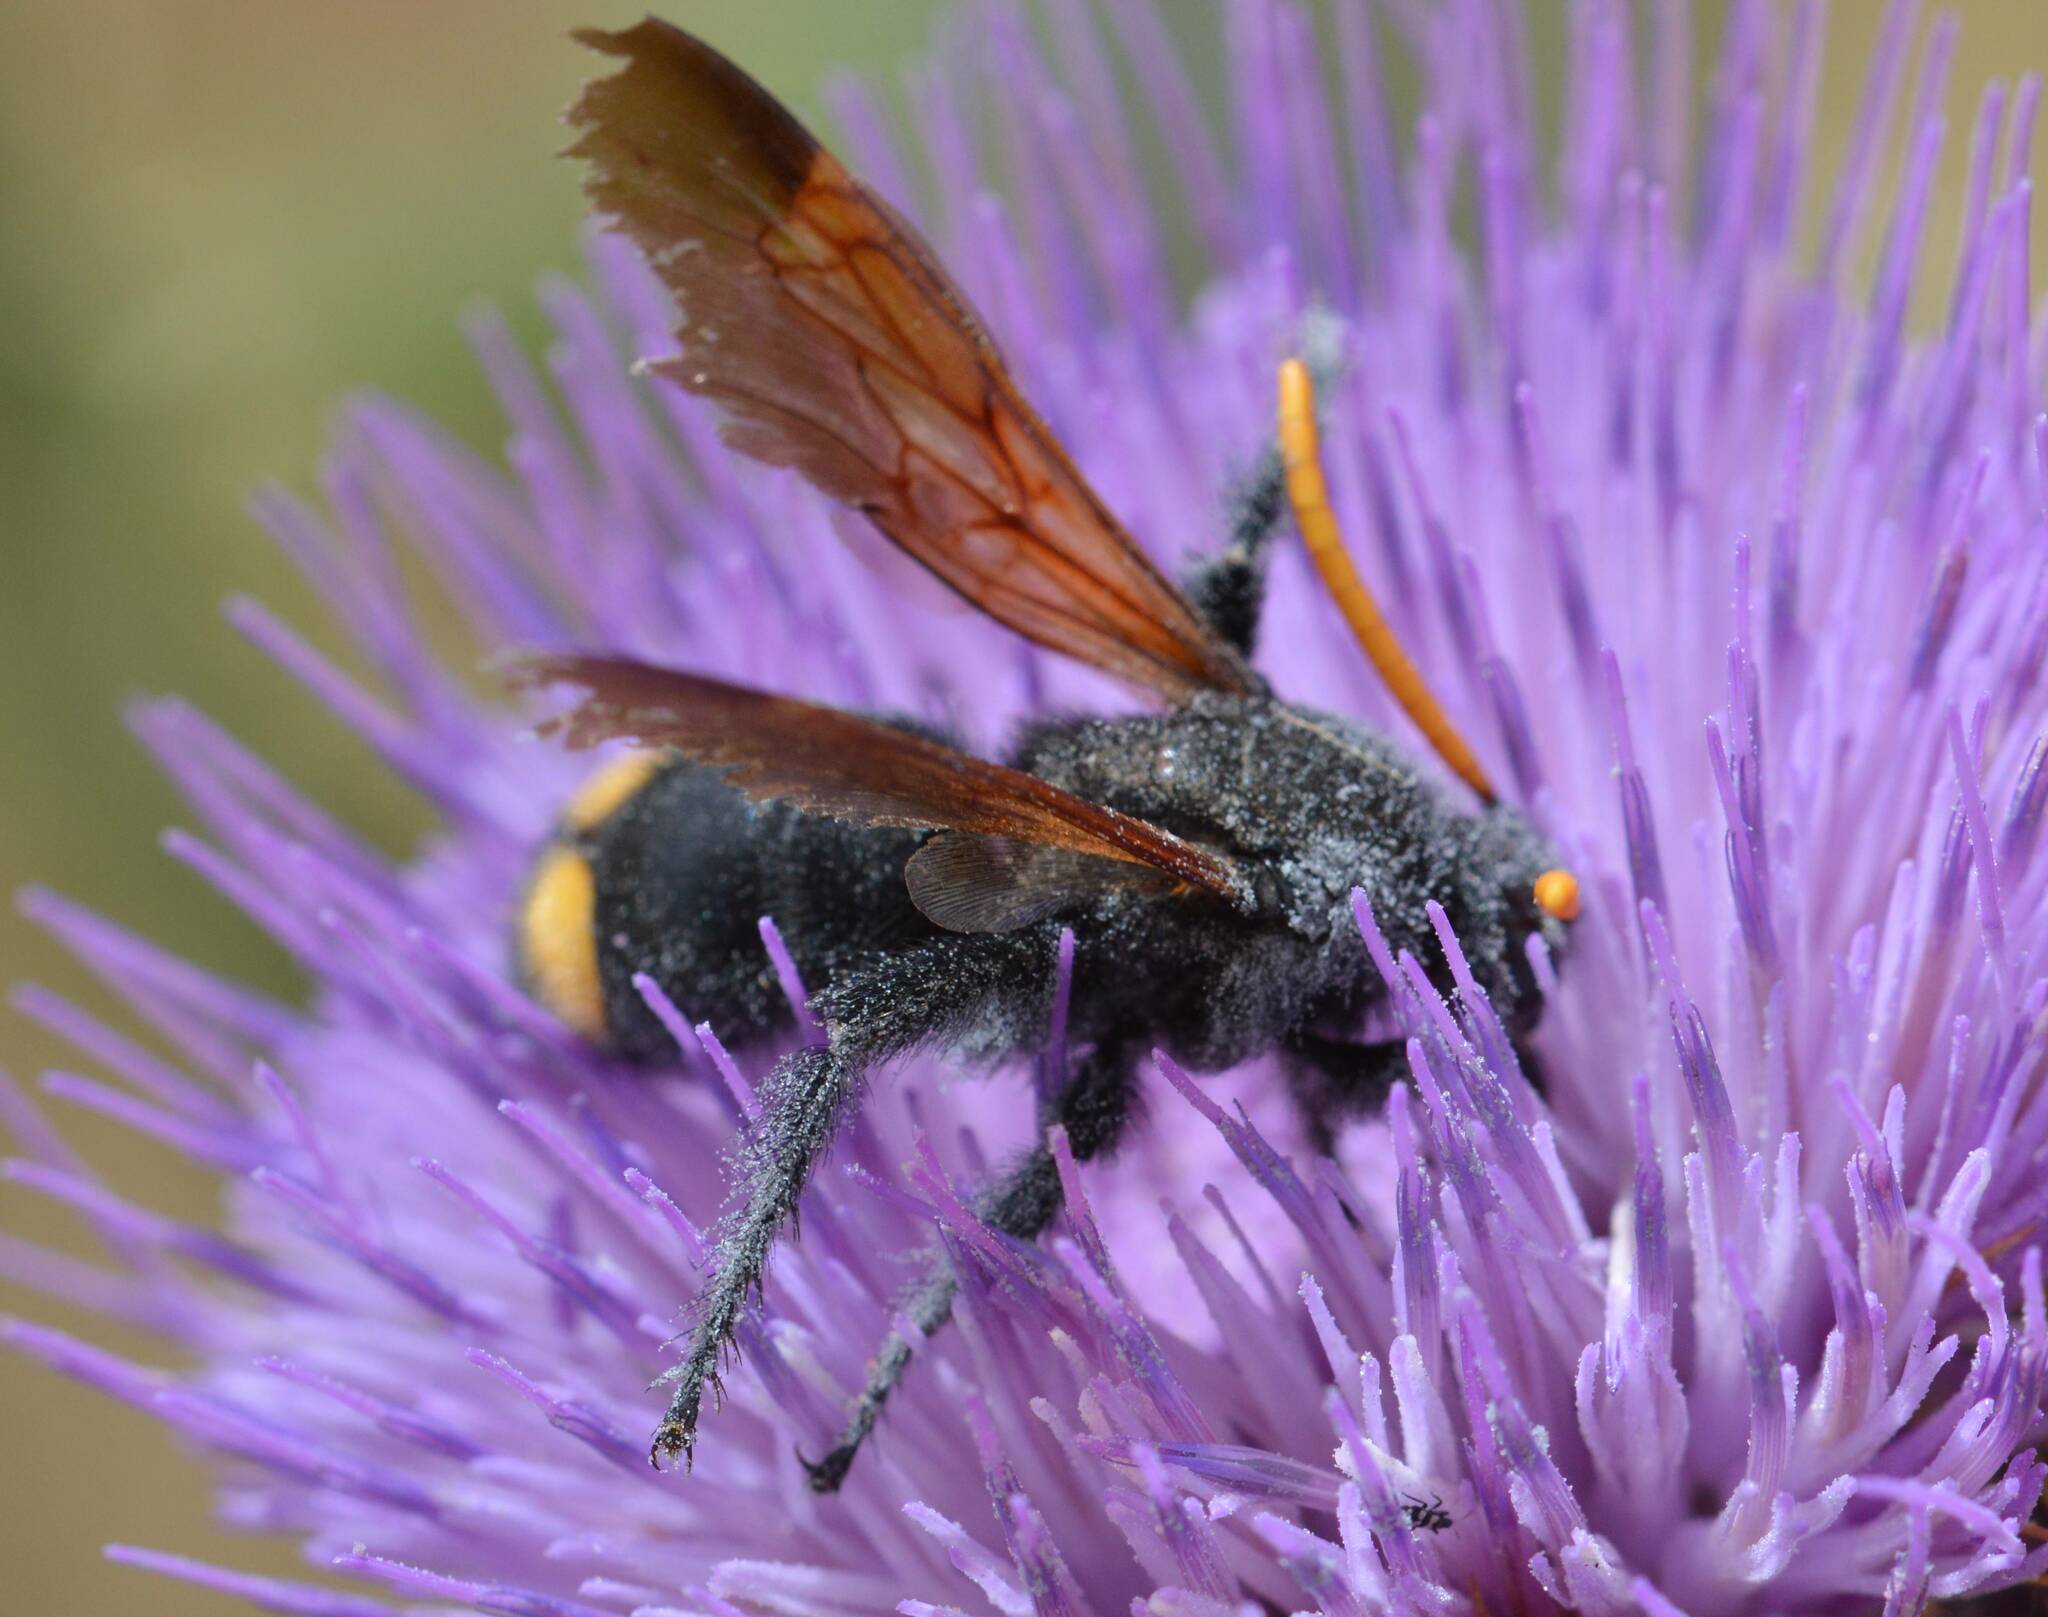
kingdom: Animalia
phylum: Arthropoda
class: Insecta
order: Hymenoptera
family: Scoliidae
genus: Megascolia
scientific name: Megascolia bidens
